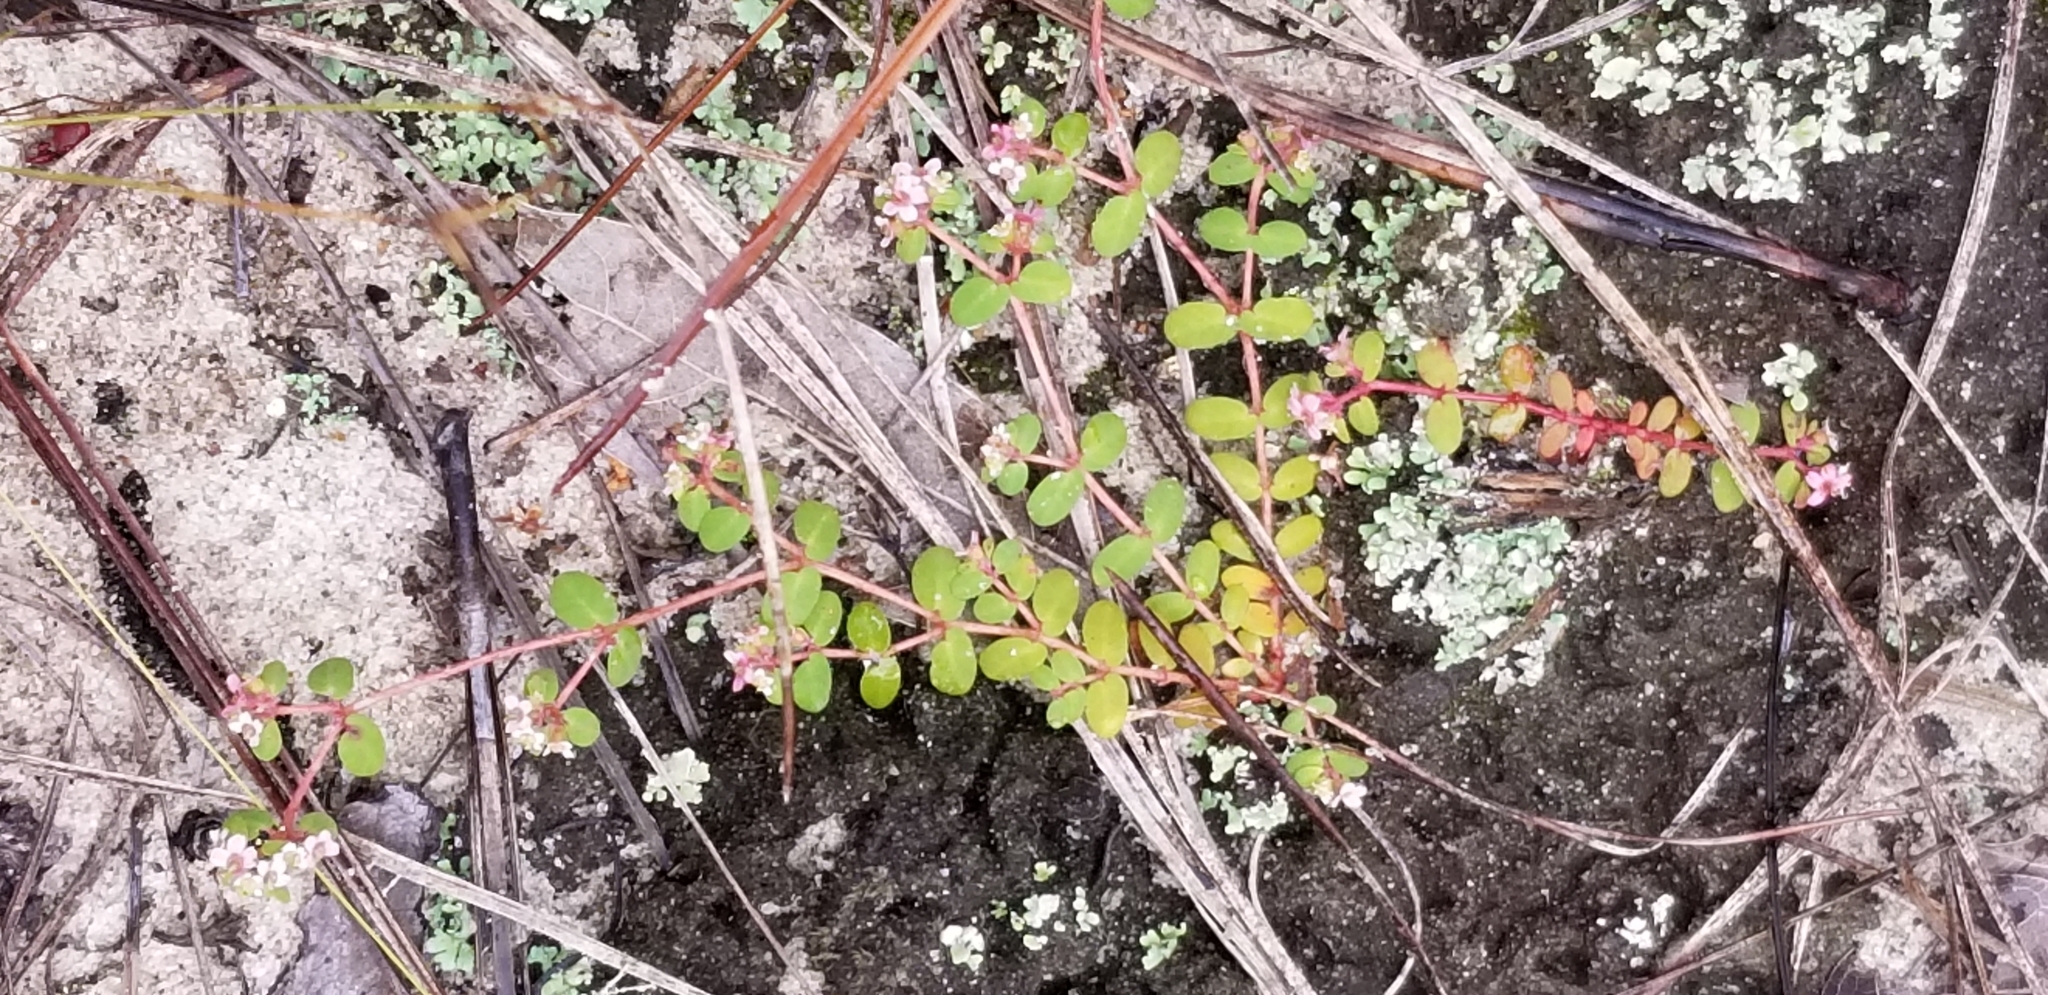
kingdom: Plantae
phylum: Tracheophyta
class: Magnoliopsida
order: Malpighiales
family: Euphorbiaceae
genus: Euphorbia
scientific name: Euphorbia cordifolia
